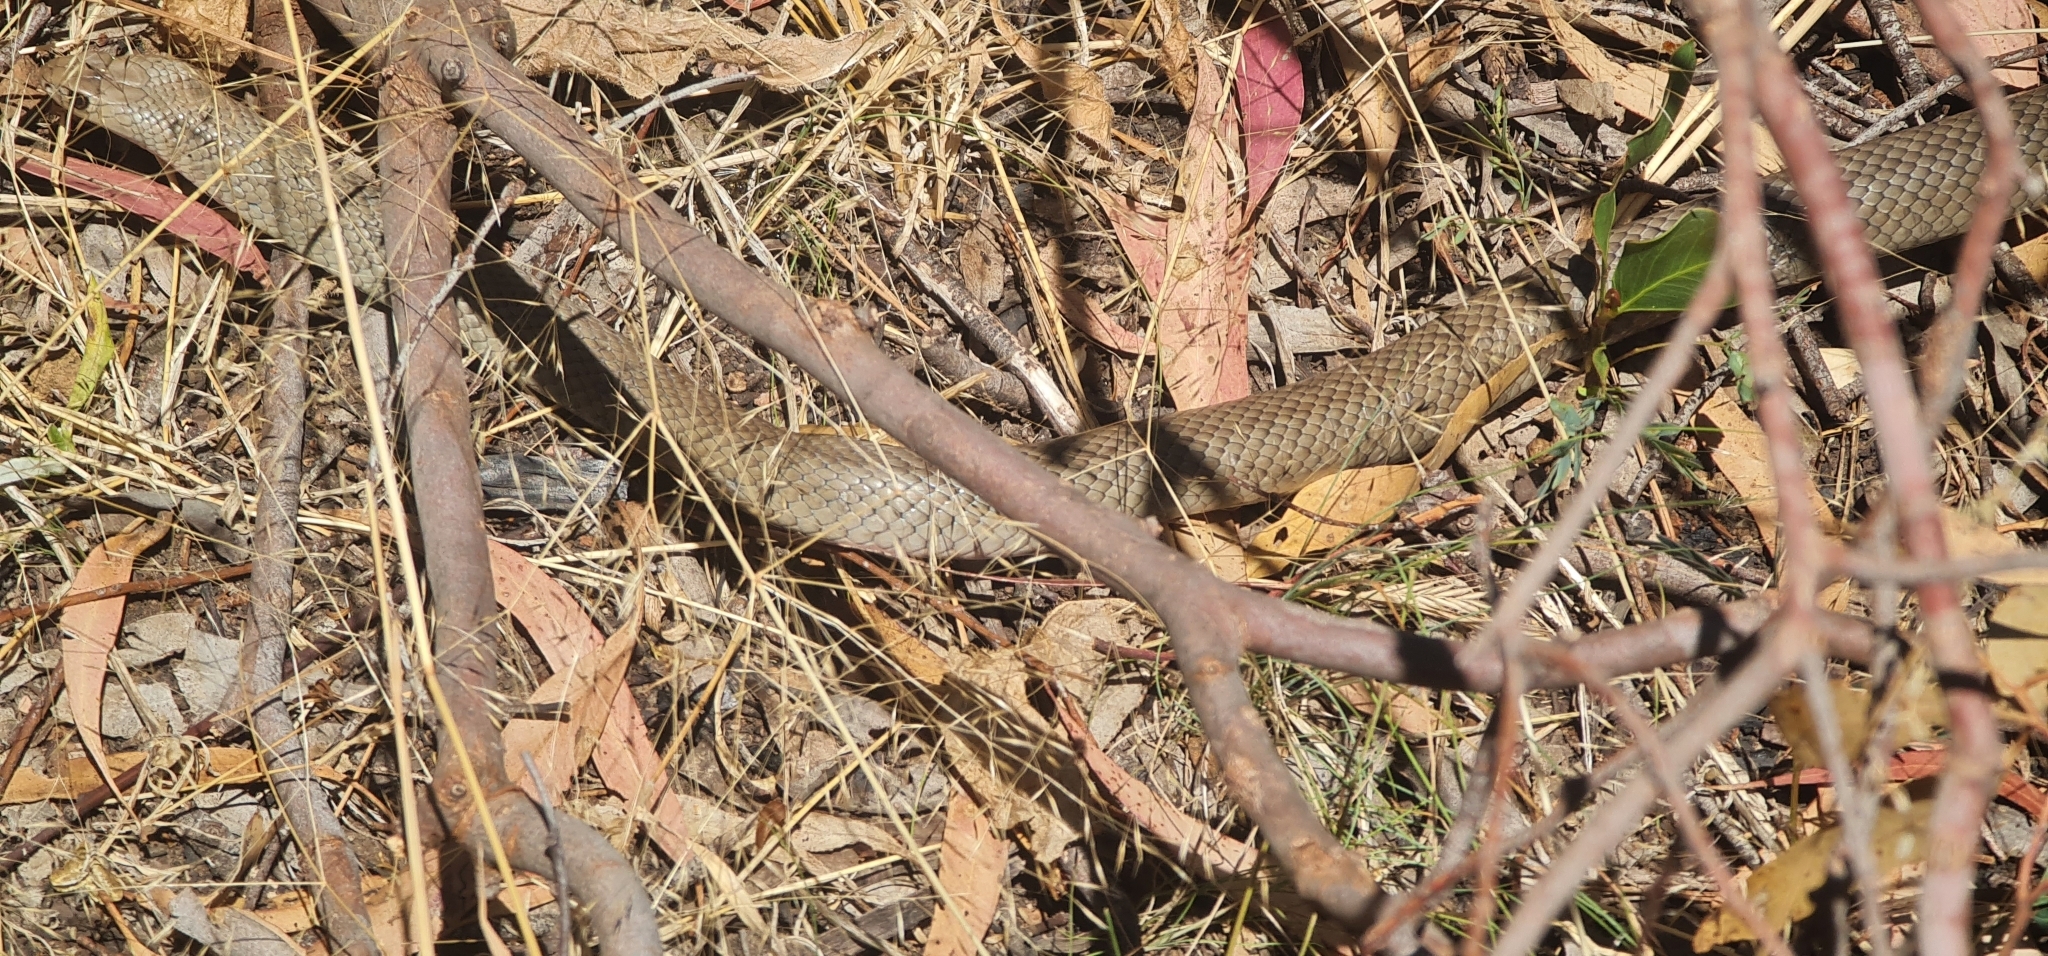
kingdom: Animalia
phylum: Chordata
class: Squamata
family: Elapidae
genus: Pseudonaja
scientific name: Pseudonaja textilis
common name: Eastern brown snake
